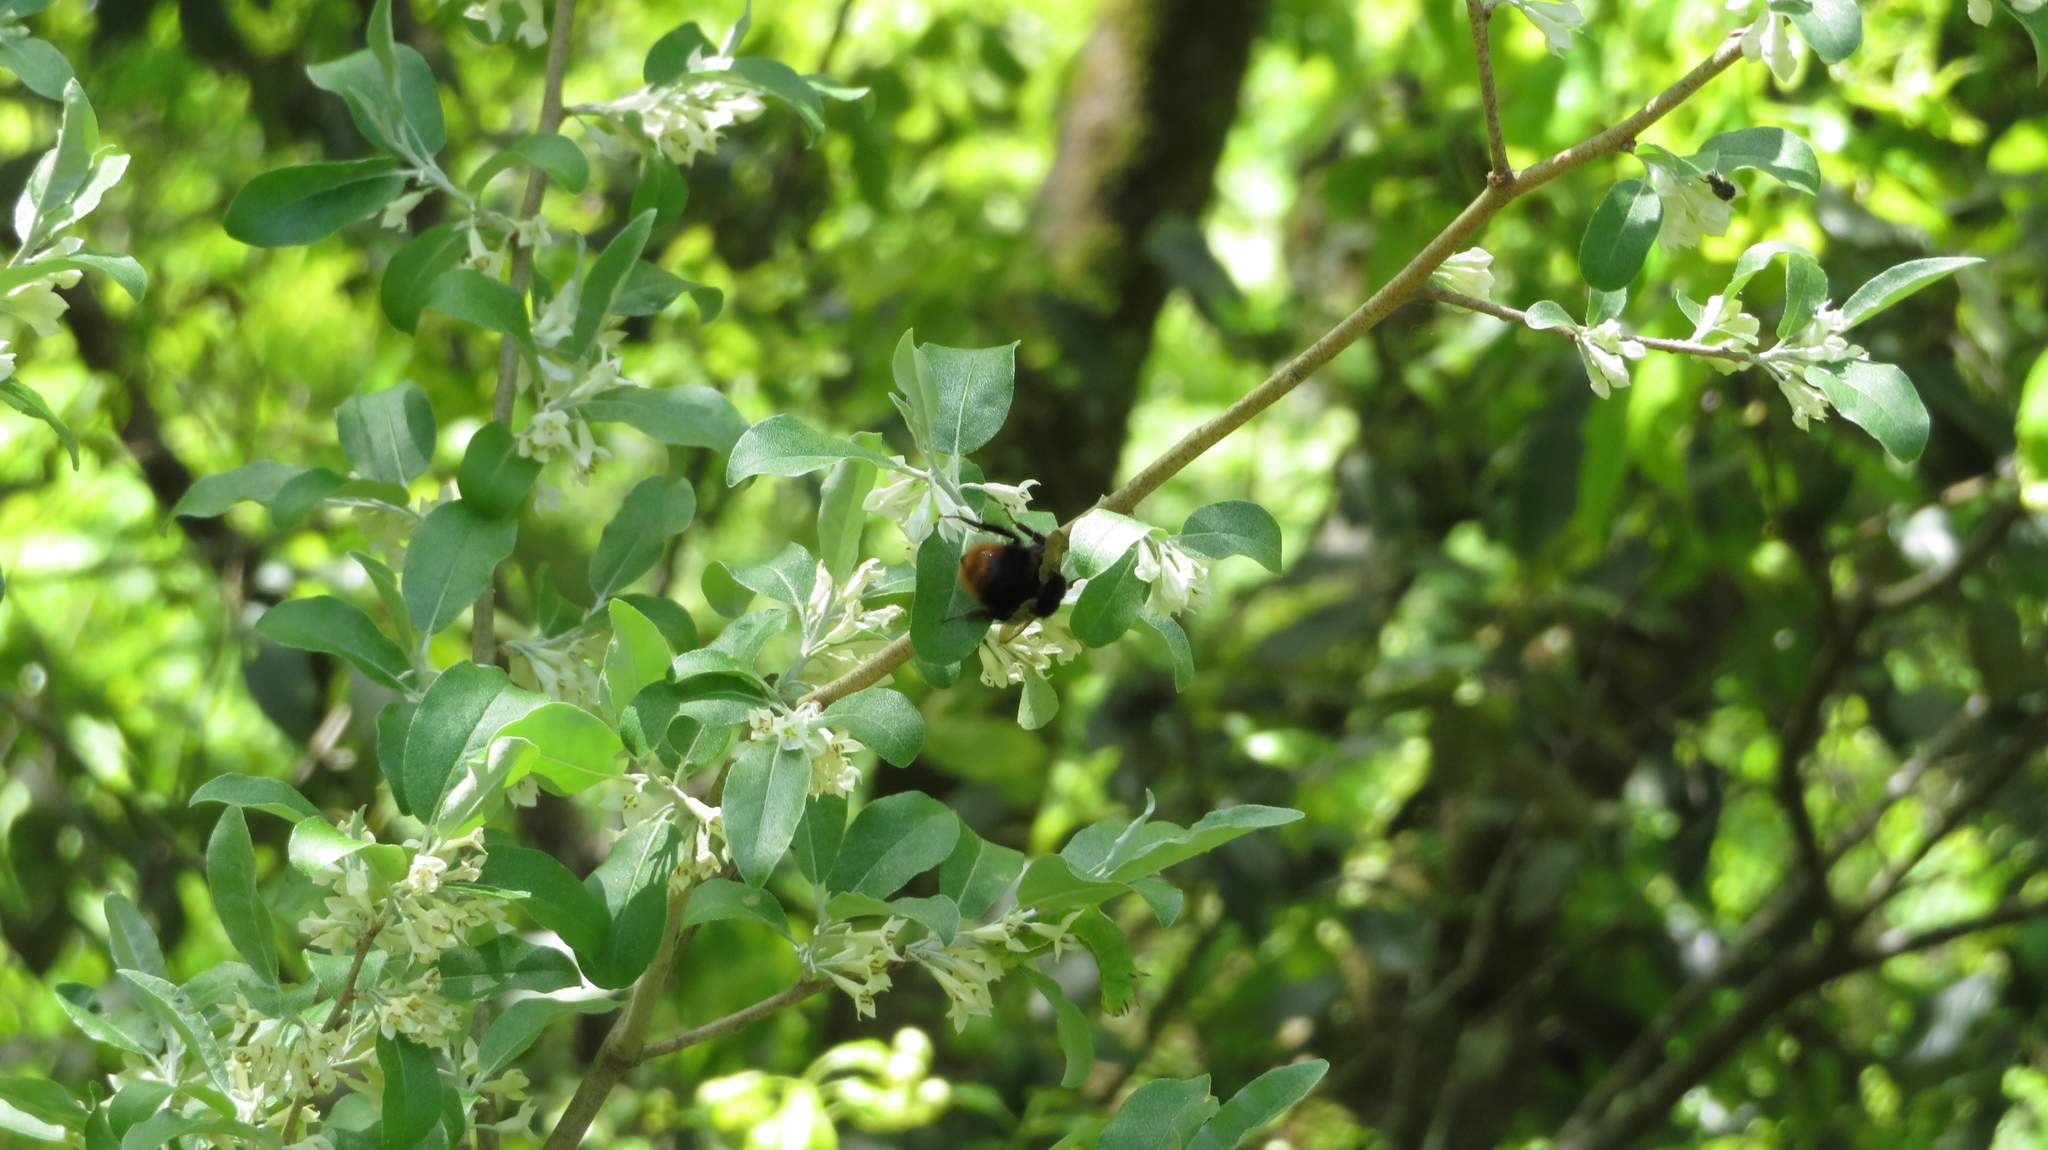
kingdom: Animalia
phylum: Arthropoda
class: Insecta
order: Hymenoptera
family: Apidae
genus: Bombus
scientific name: Bombus ignitus
